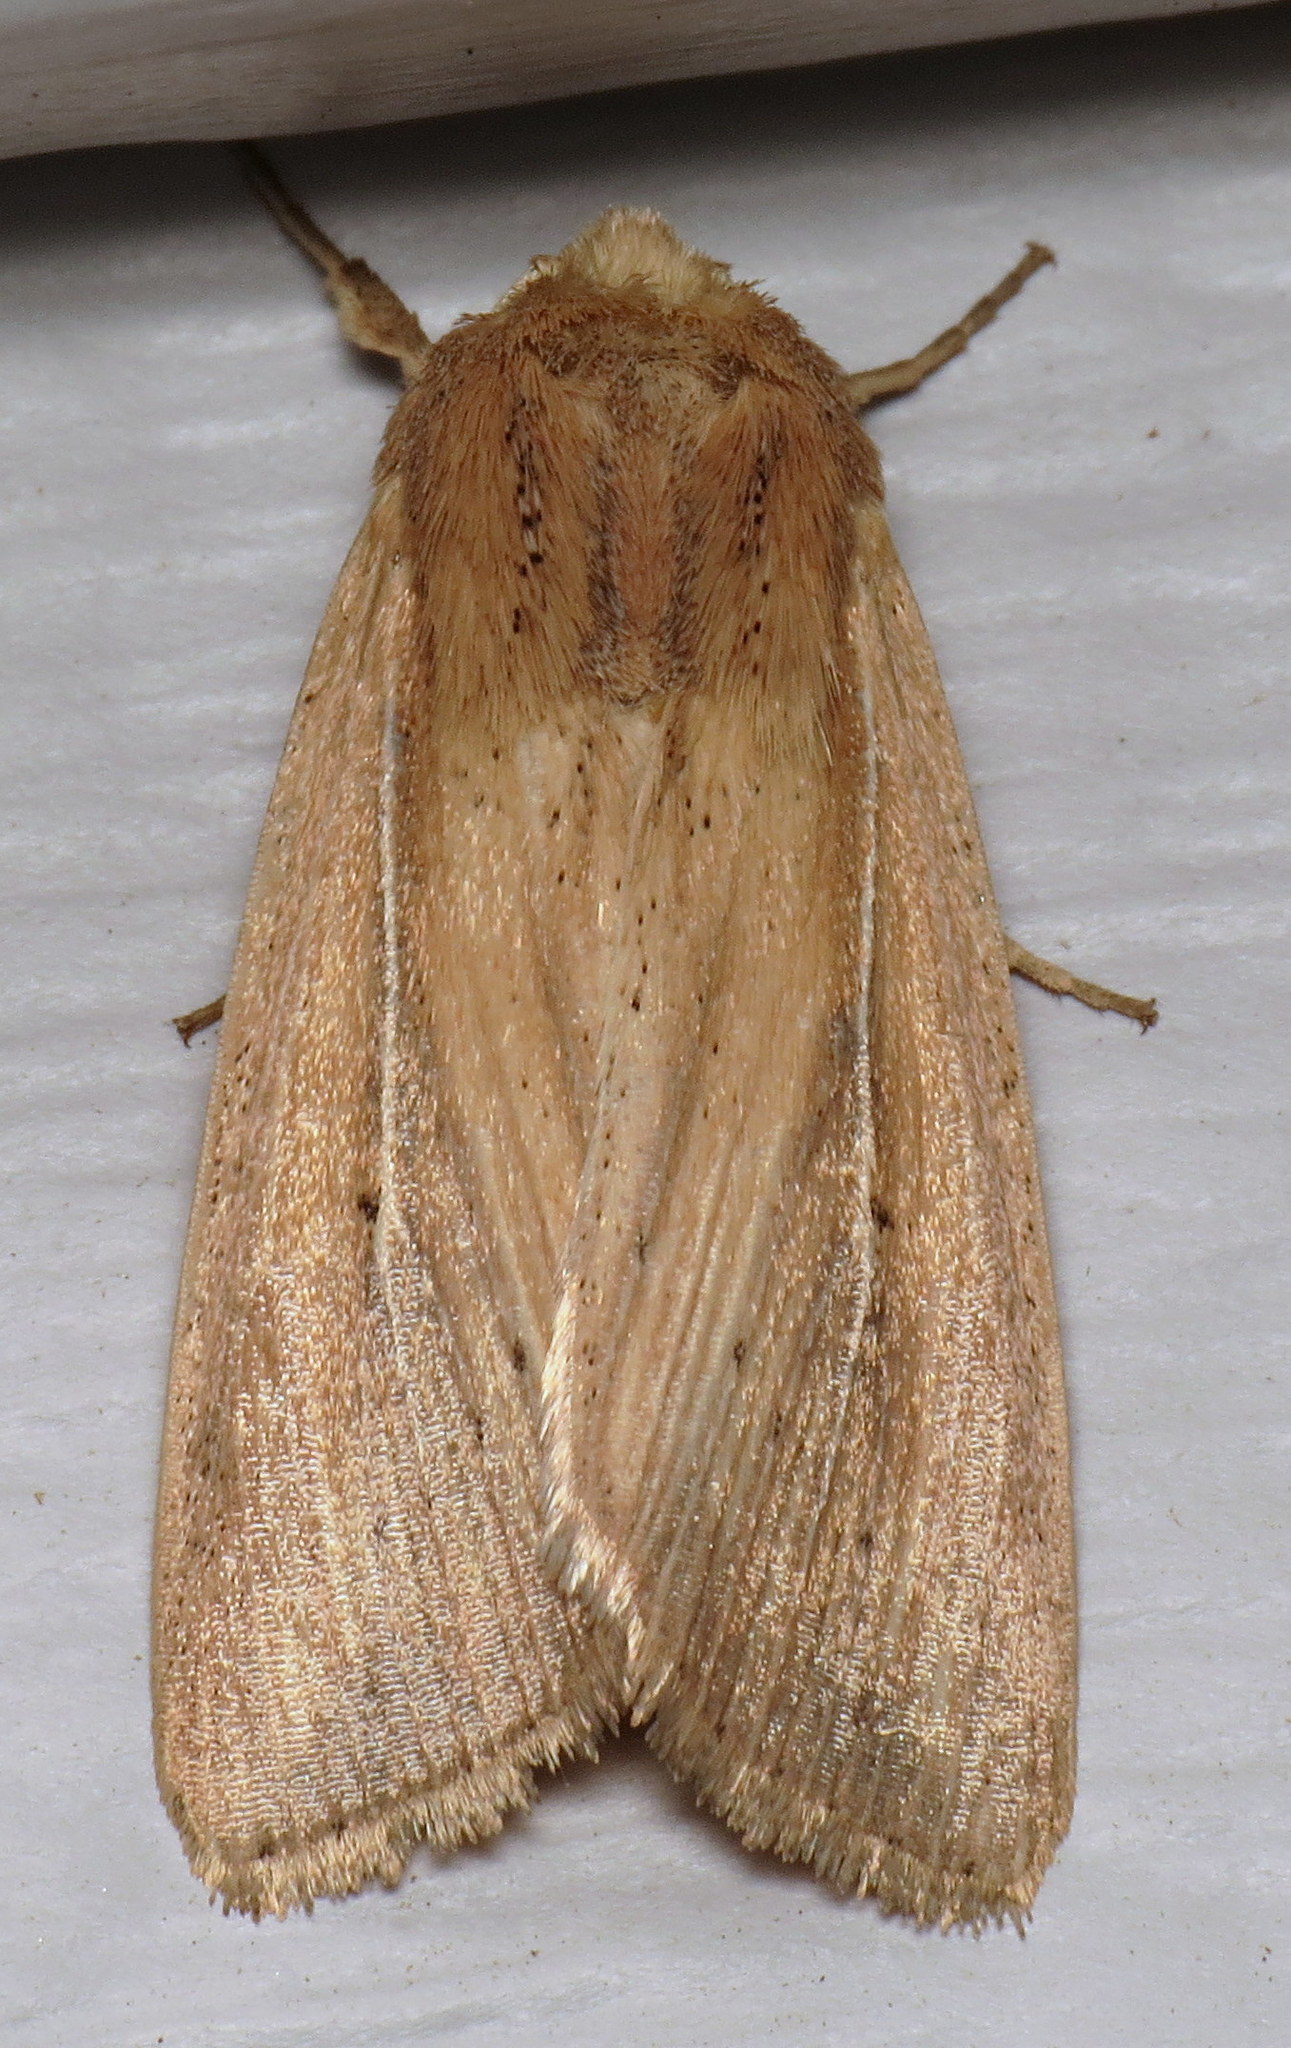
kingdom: Animalia
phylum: Arthropoda
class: Insecta
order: Lepidoptera
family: Noctuidae
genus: Leucania
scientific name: Leucania phragmitidicola
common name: Phragmites wainscot
